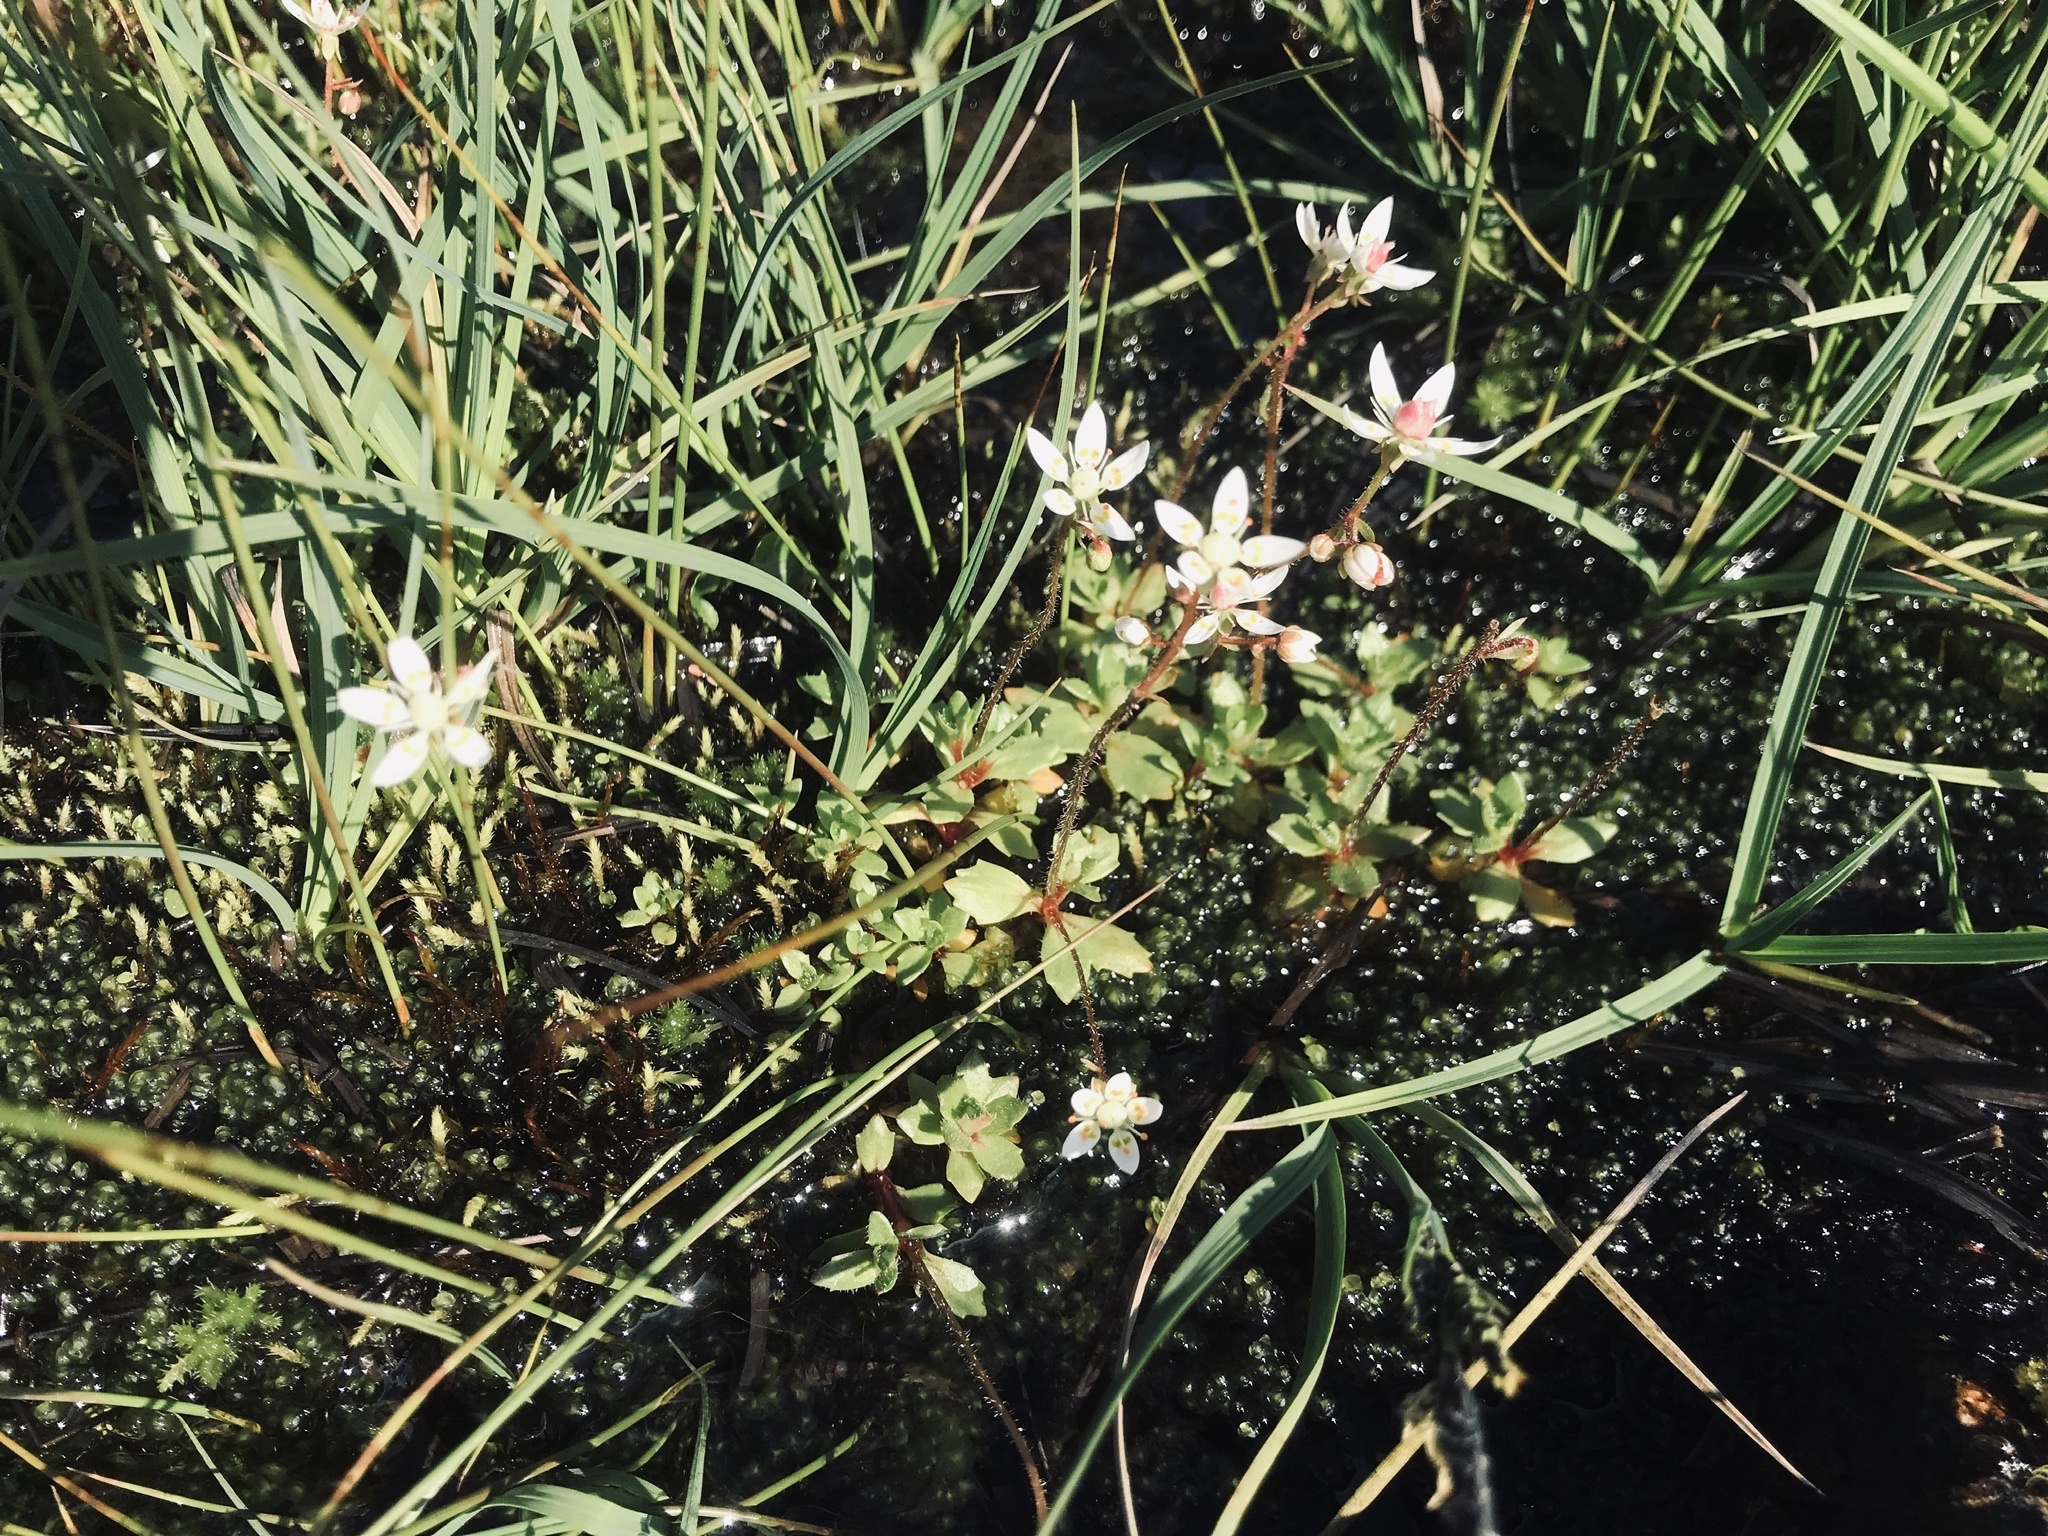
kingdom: Plantae
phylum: Tracheophyta
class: Magnoliopsida
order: Saxifragales
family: Saxifragaceae
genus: Micranthes
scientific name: Micranthes stellaris
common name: Starry saxifrage
